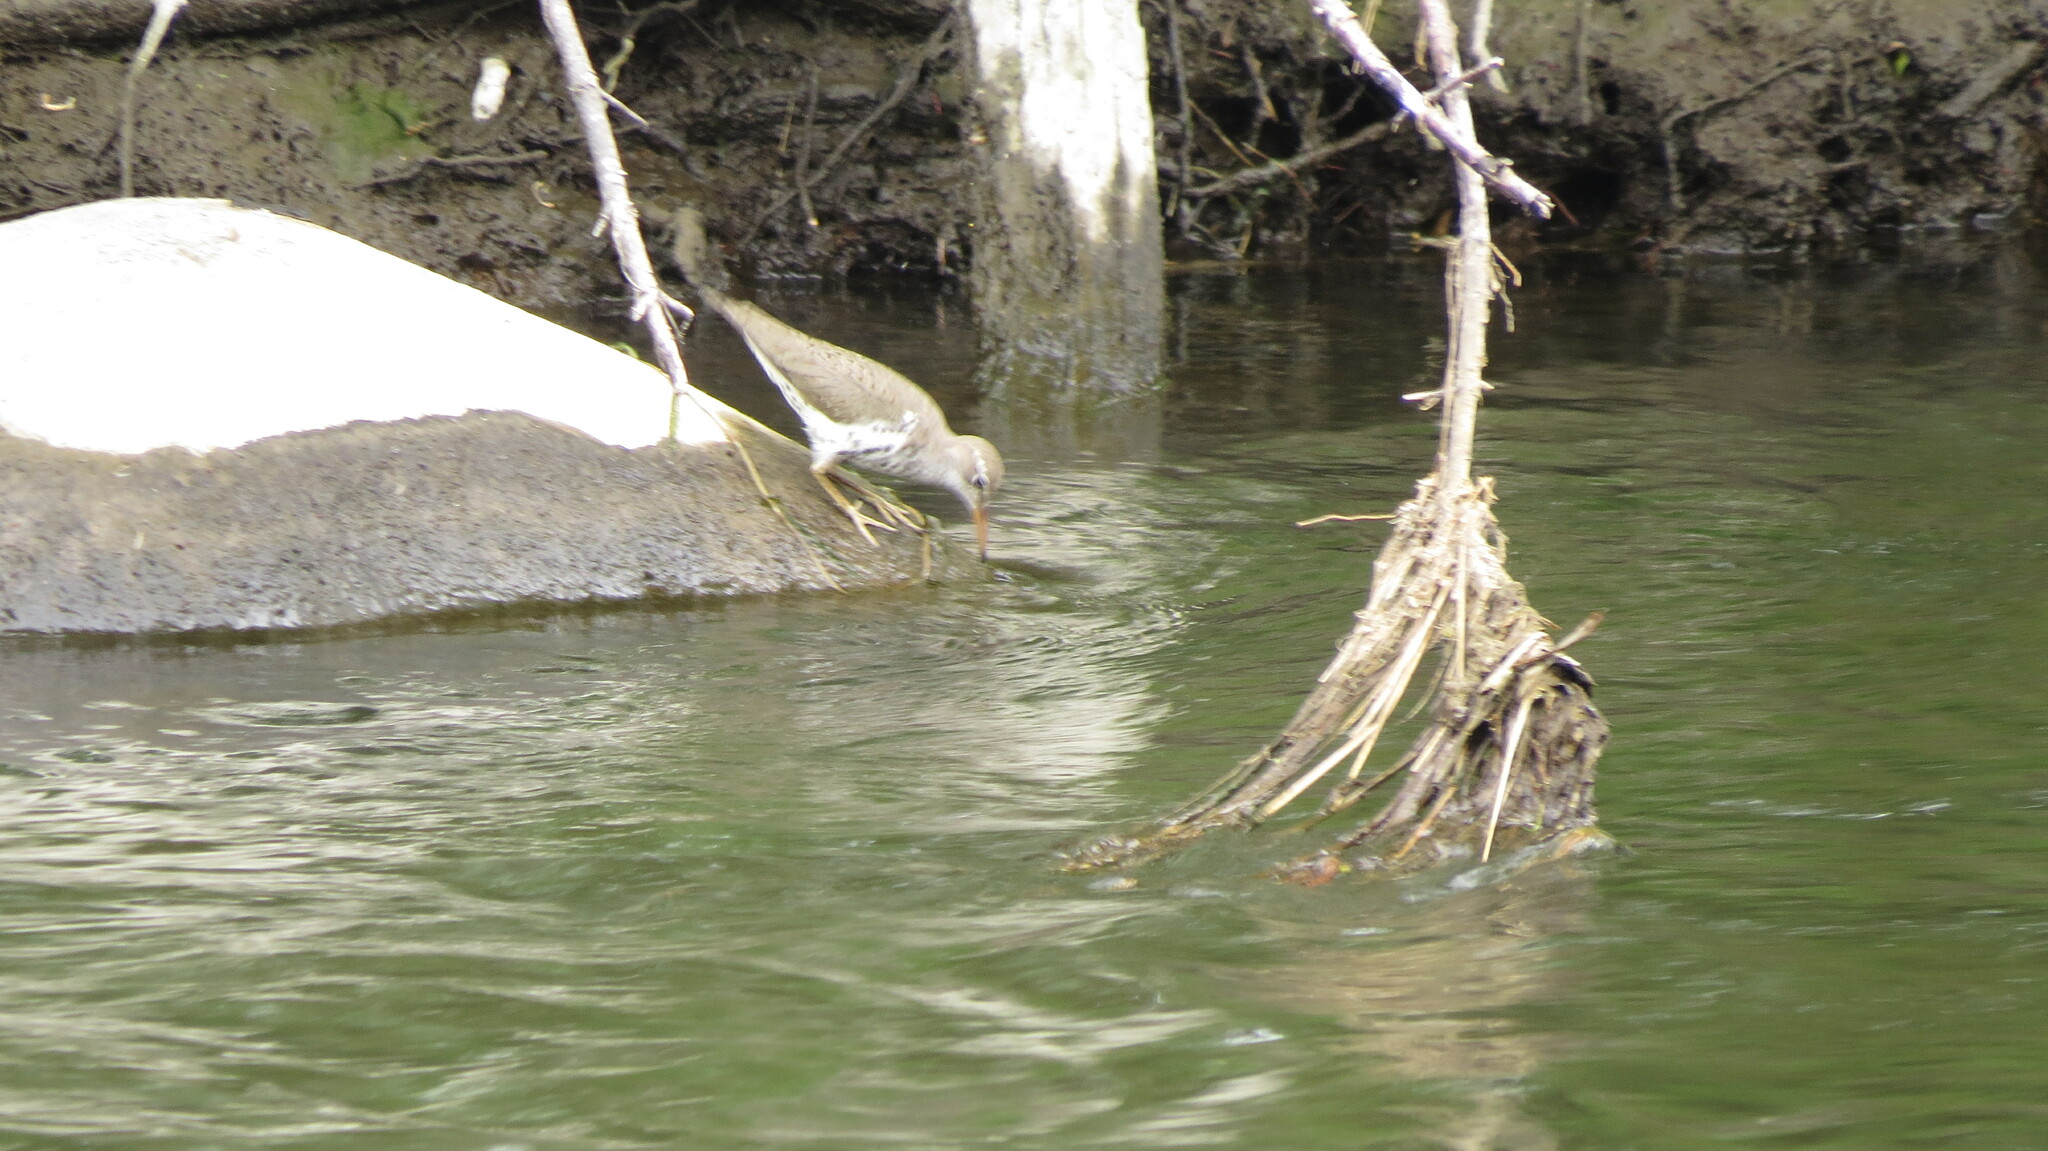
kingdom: Animalia
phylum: Chordata
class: Aves
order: Charadriiformes
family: Scolopacidae
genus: Actitis
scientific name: Actitis macularius
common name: Spotted sandpiper
